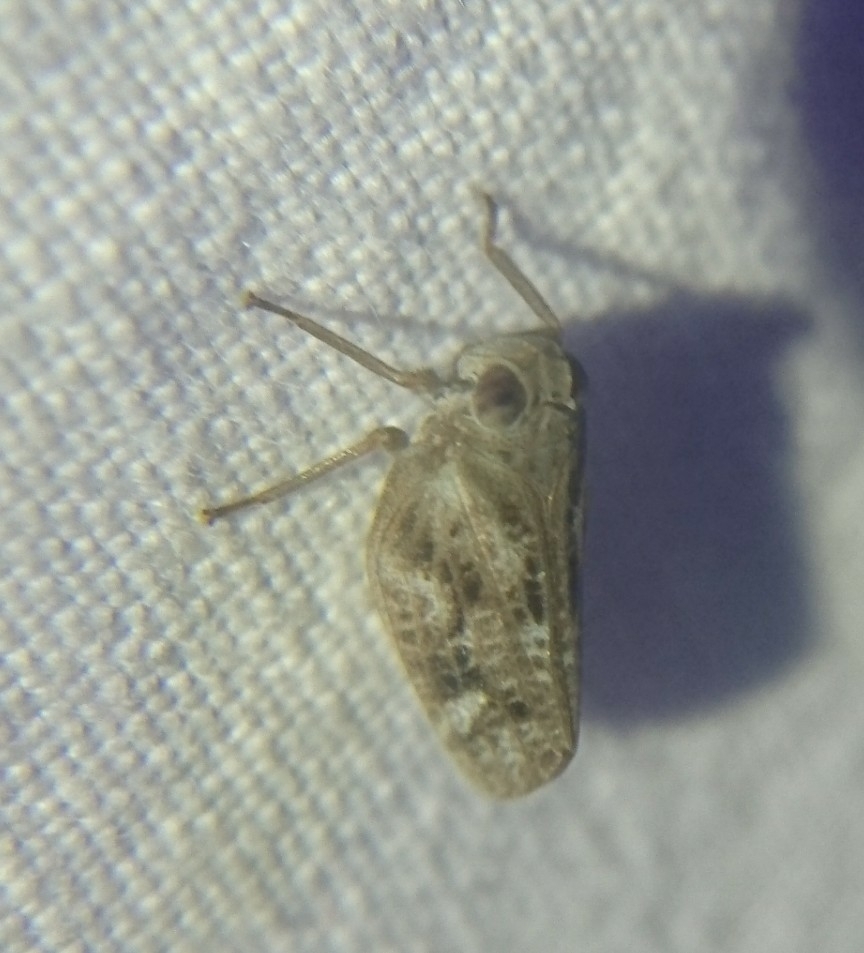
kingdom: Animalia
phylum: Arthropoda
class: Insecta
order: Hemiptera
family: Issidae
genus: Thionia
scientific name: Thionia bullata
